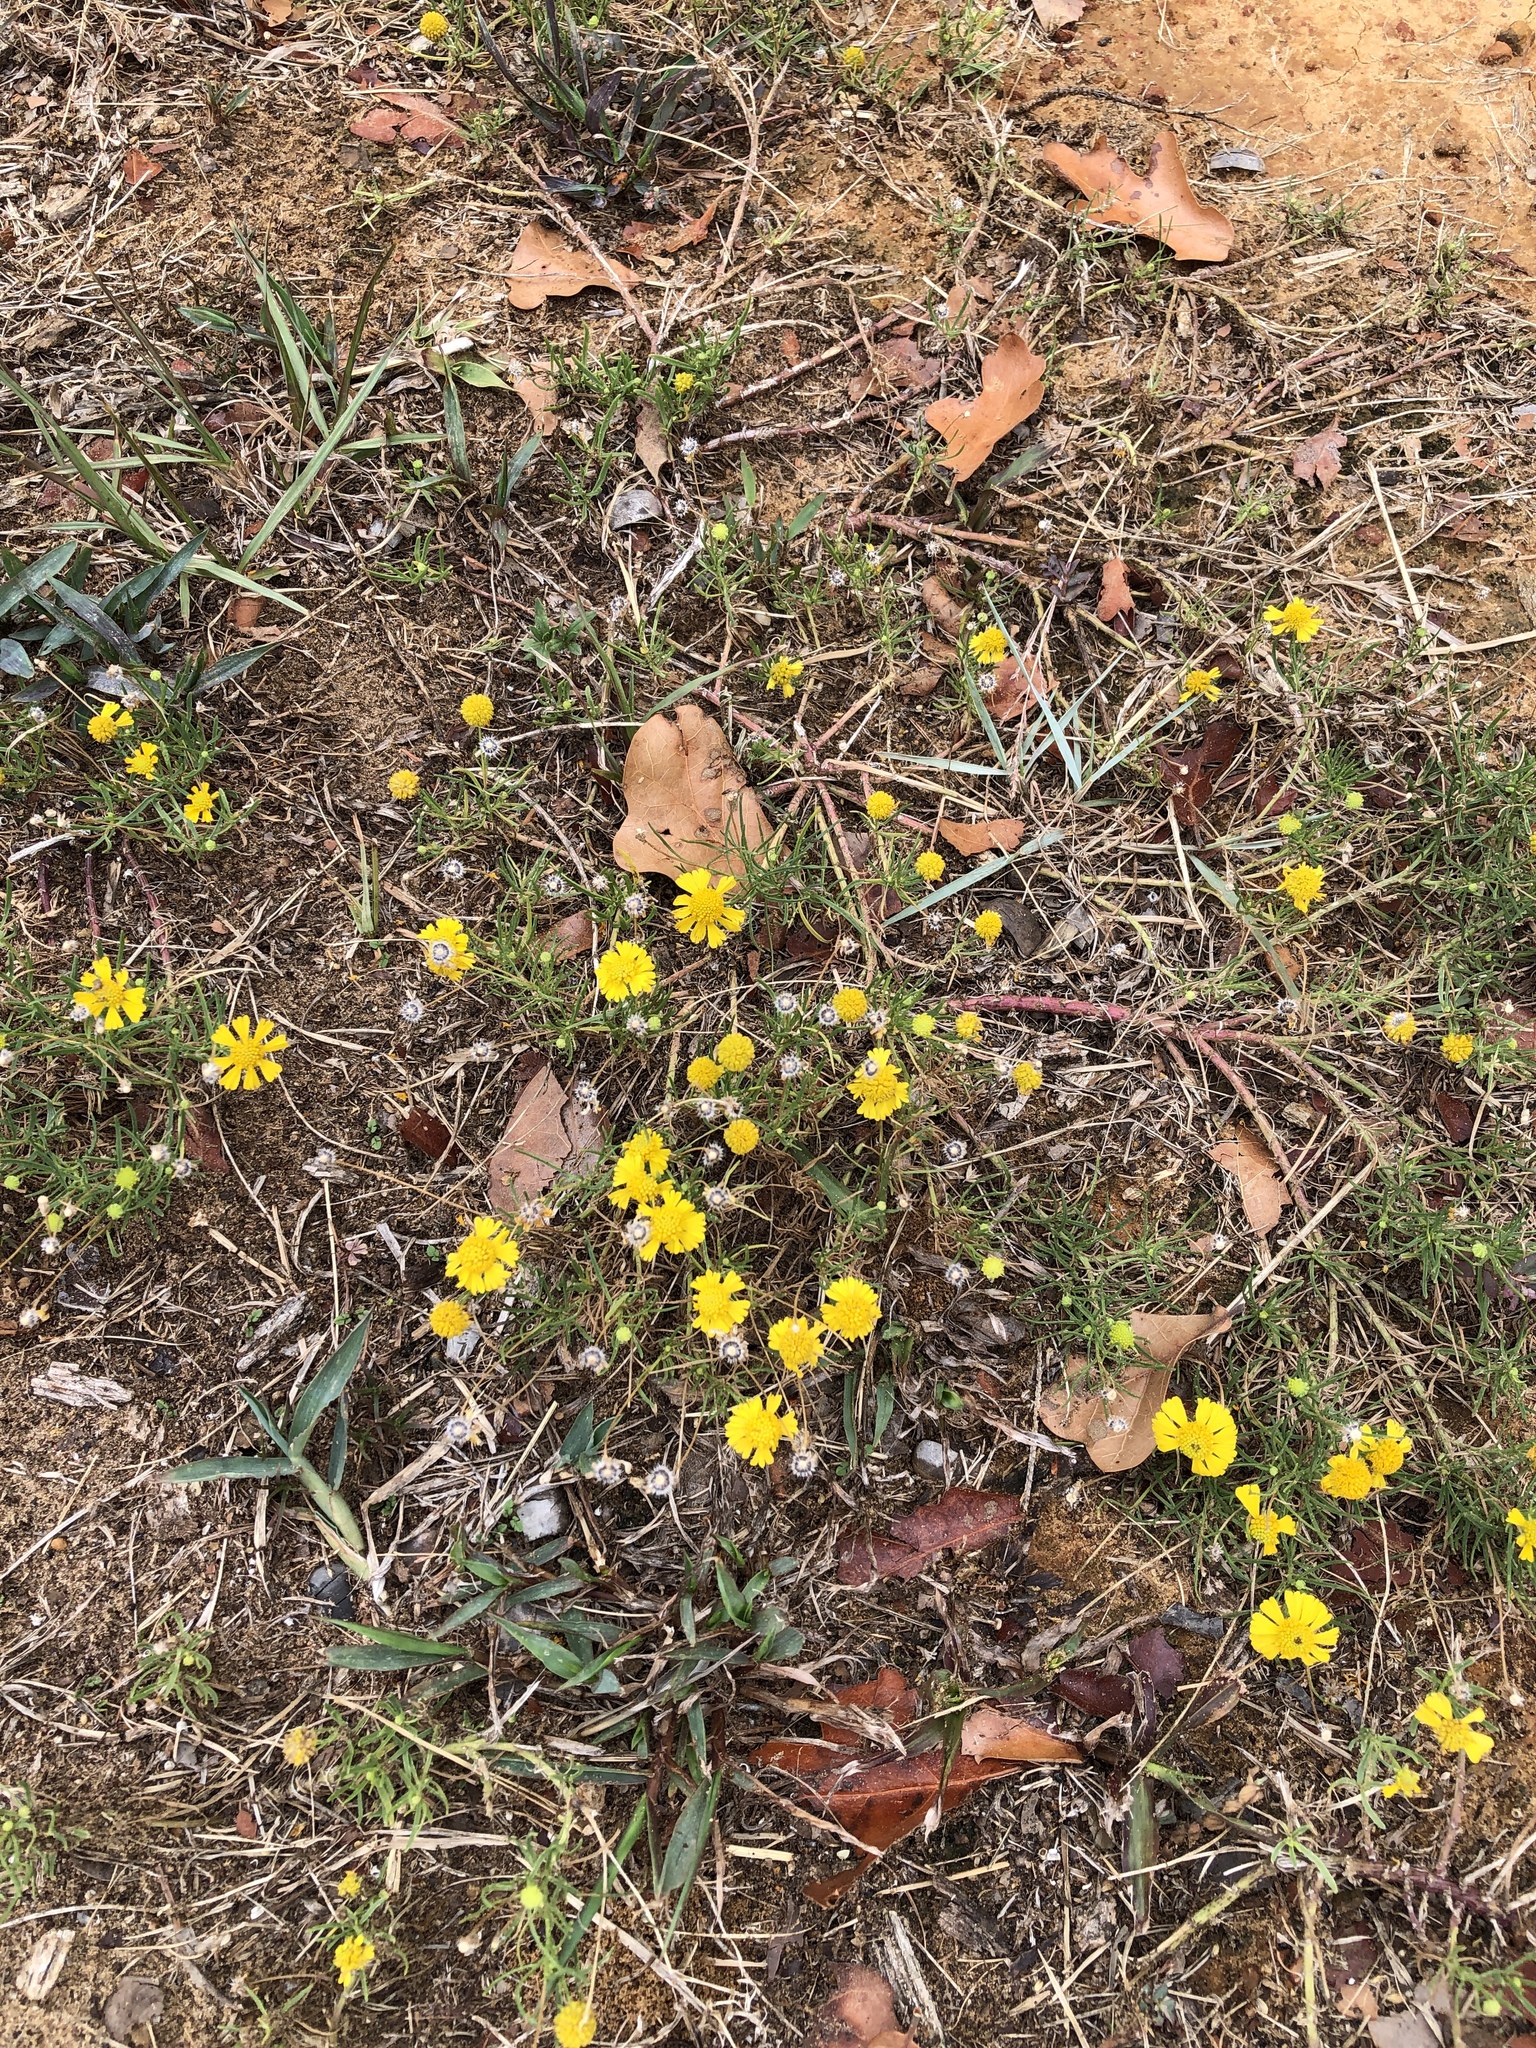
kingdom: Plantae
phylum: Tracheophyta
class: Magnoliopsida
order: Asterales
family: Asteraceae
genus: Helenium
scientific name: Helenium amarum
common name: Bitter sneezeweed
